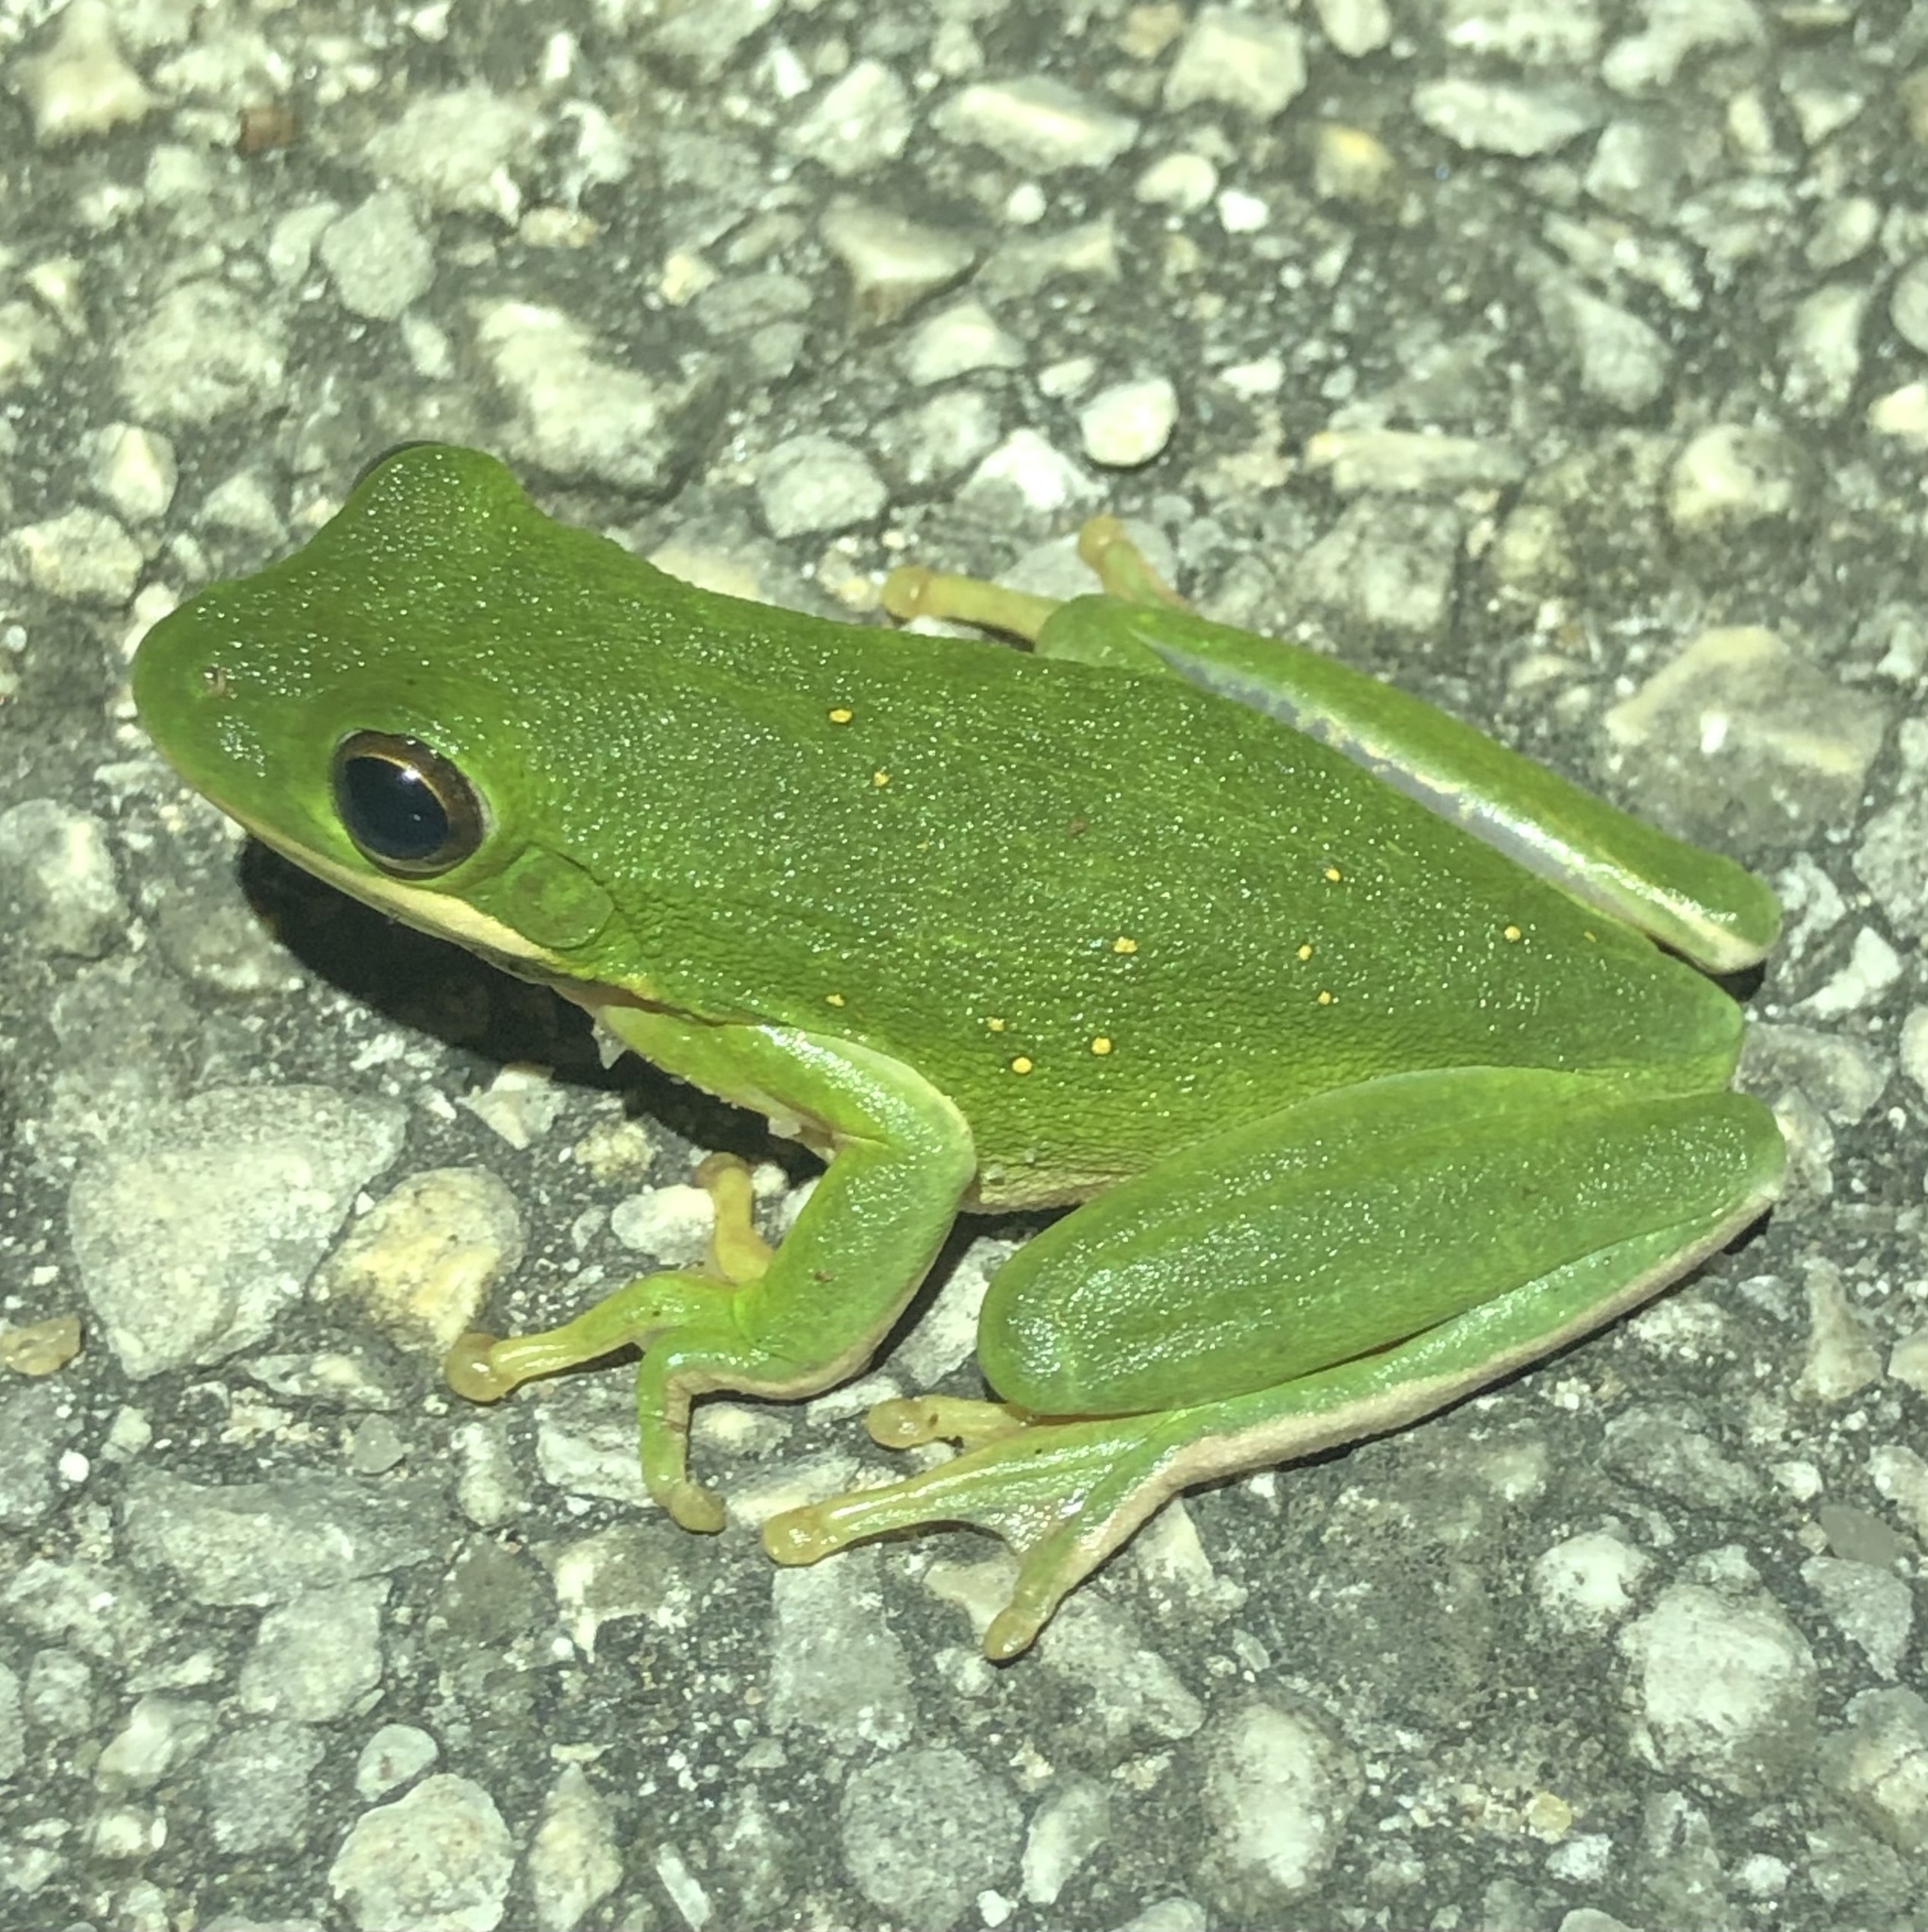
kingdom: Animalia
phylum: Chordata
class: Amphibia
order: Anura
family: Hylidae
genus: Dryophytes
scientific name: Dryophytes cinereus
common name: Green treefrog
